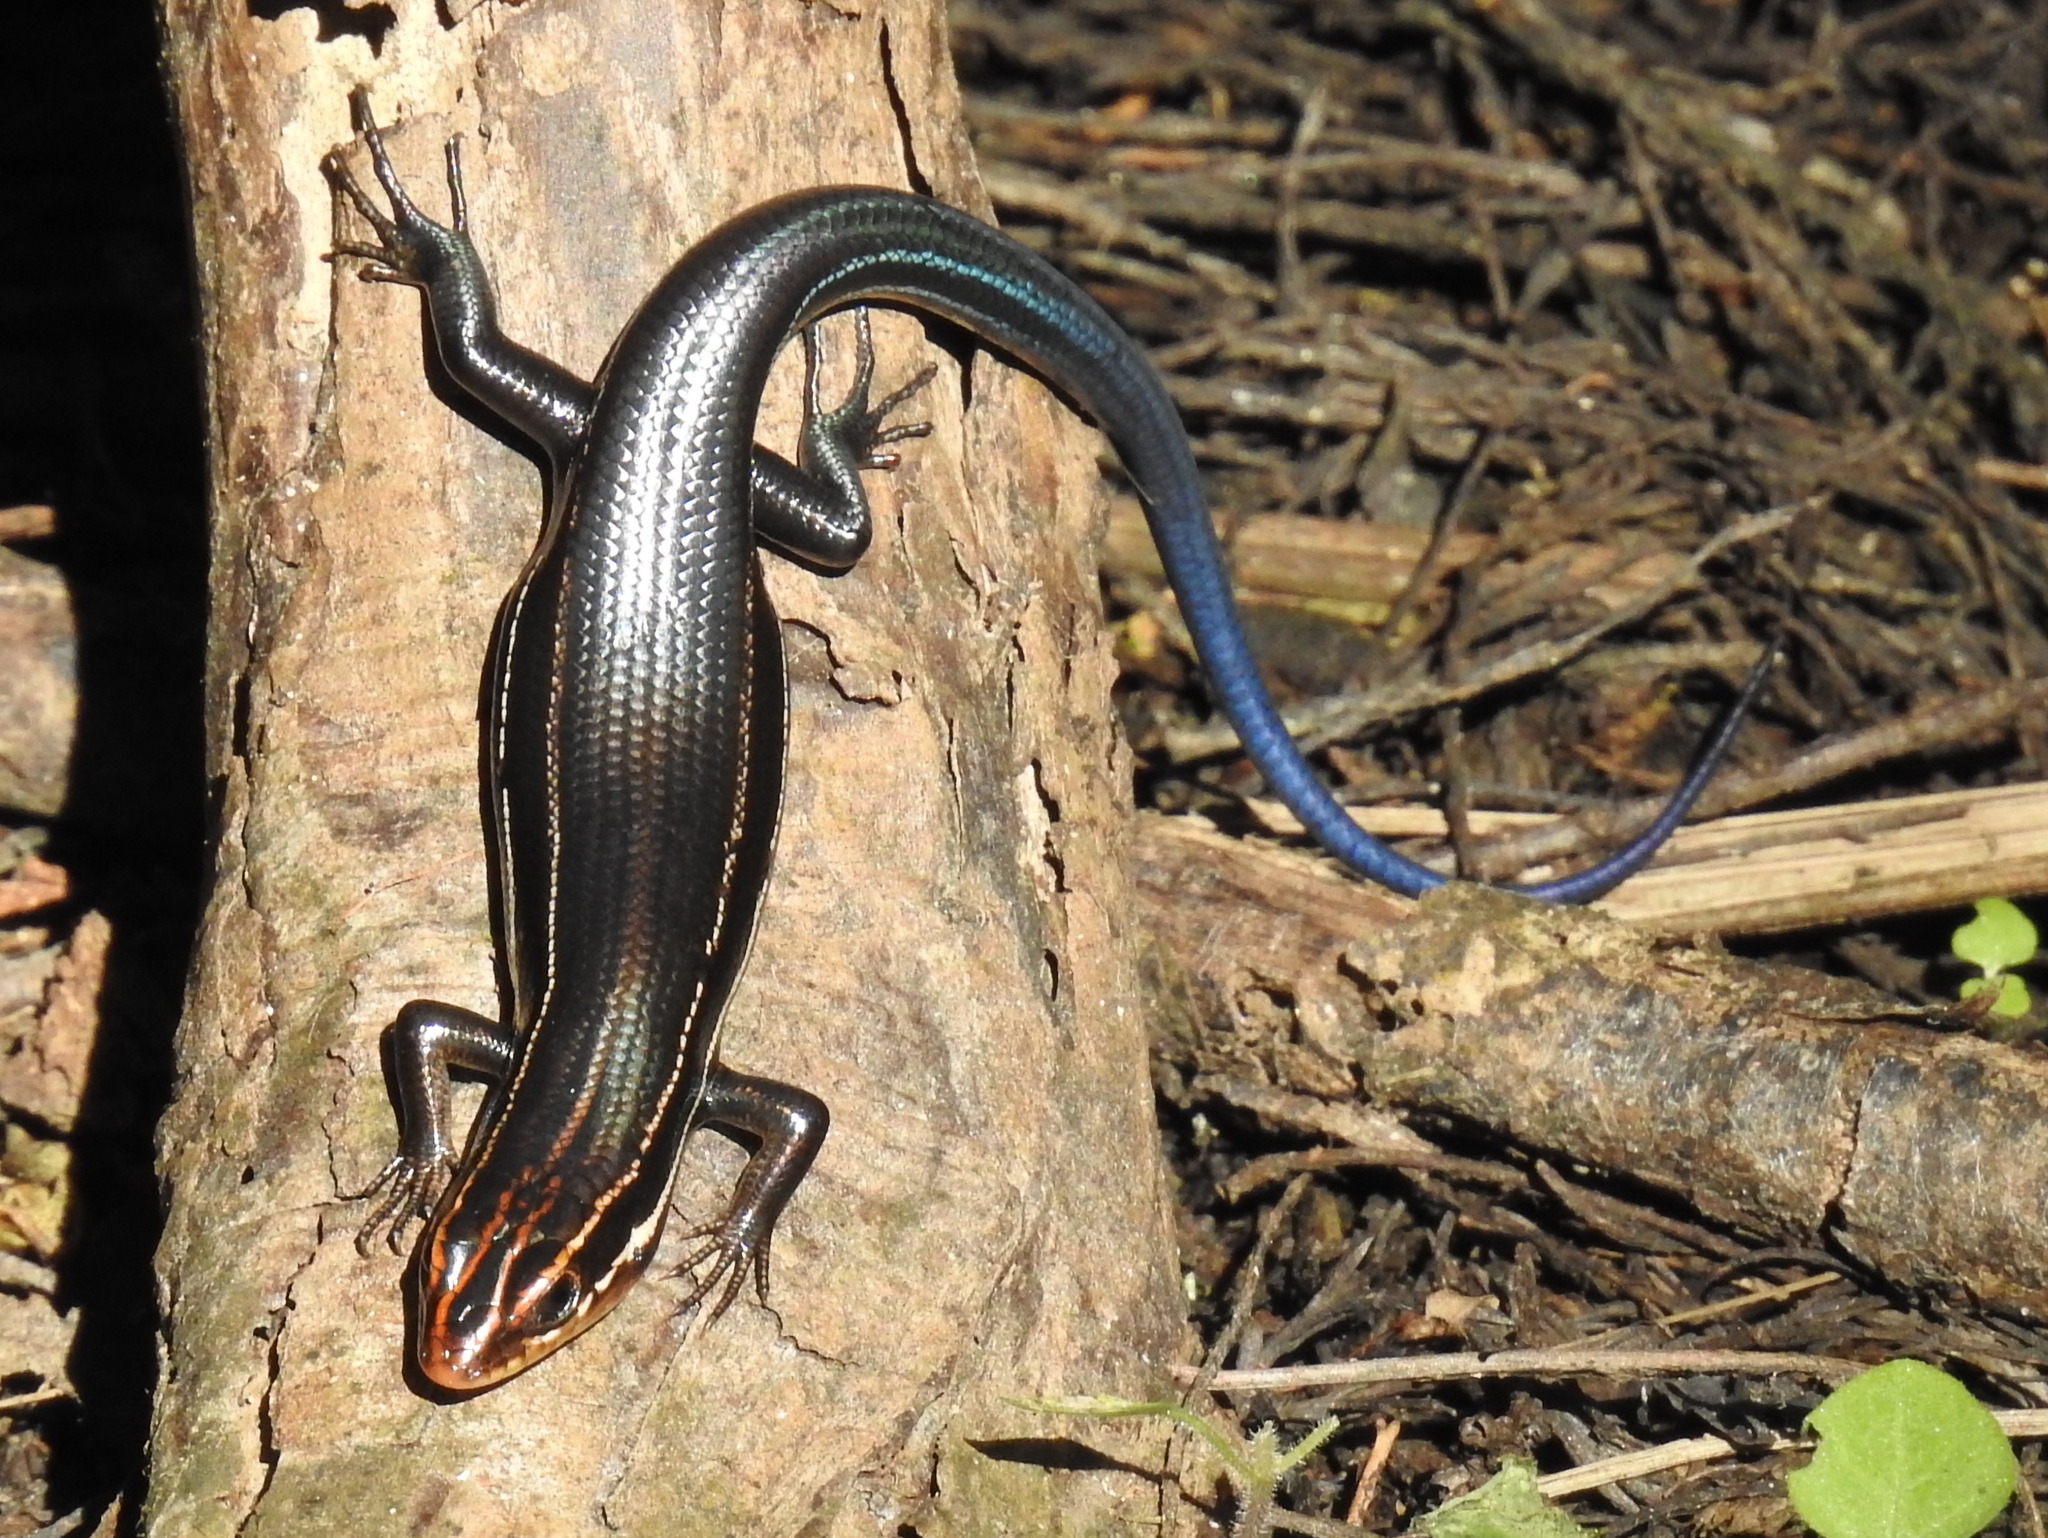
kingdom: Animalia
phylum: Chordata
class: Squamata
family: Scincidae
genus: Plestiodon
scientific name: Plestiodon inexpectatus
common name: Southeastern five-lined skink
